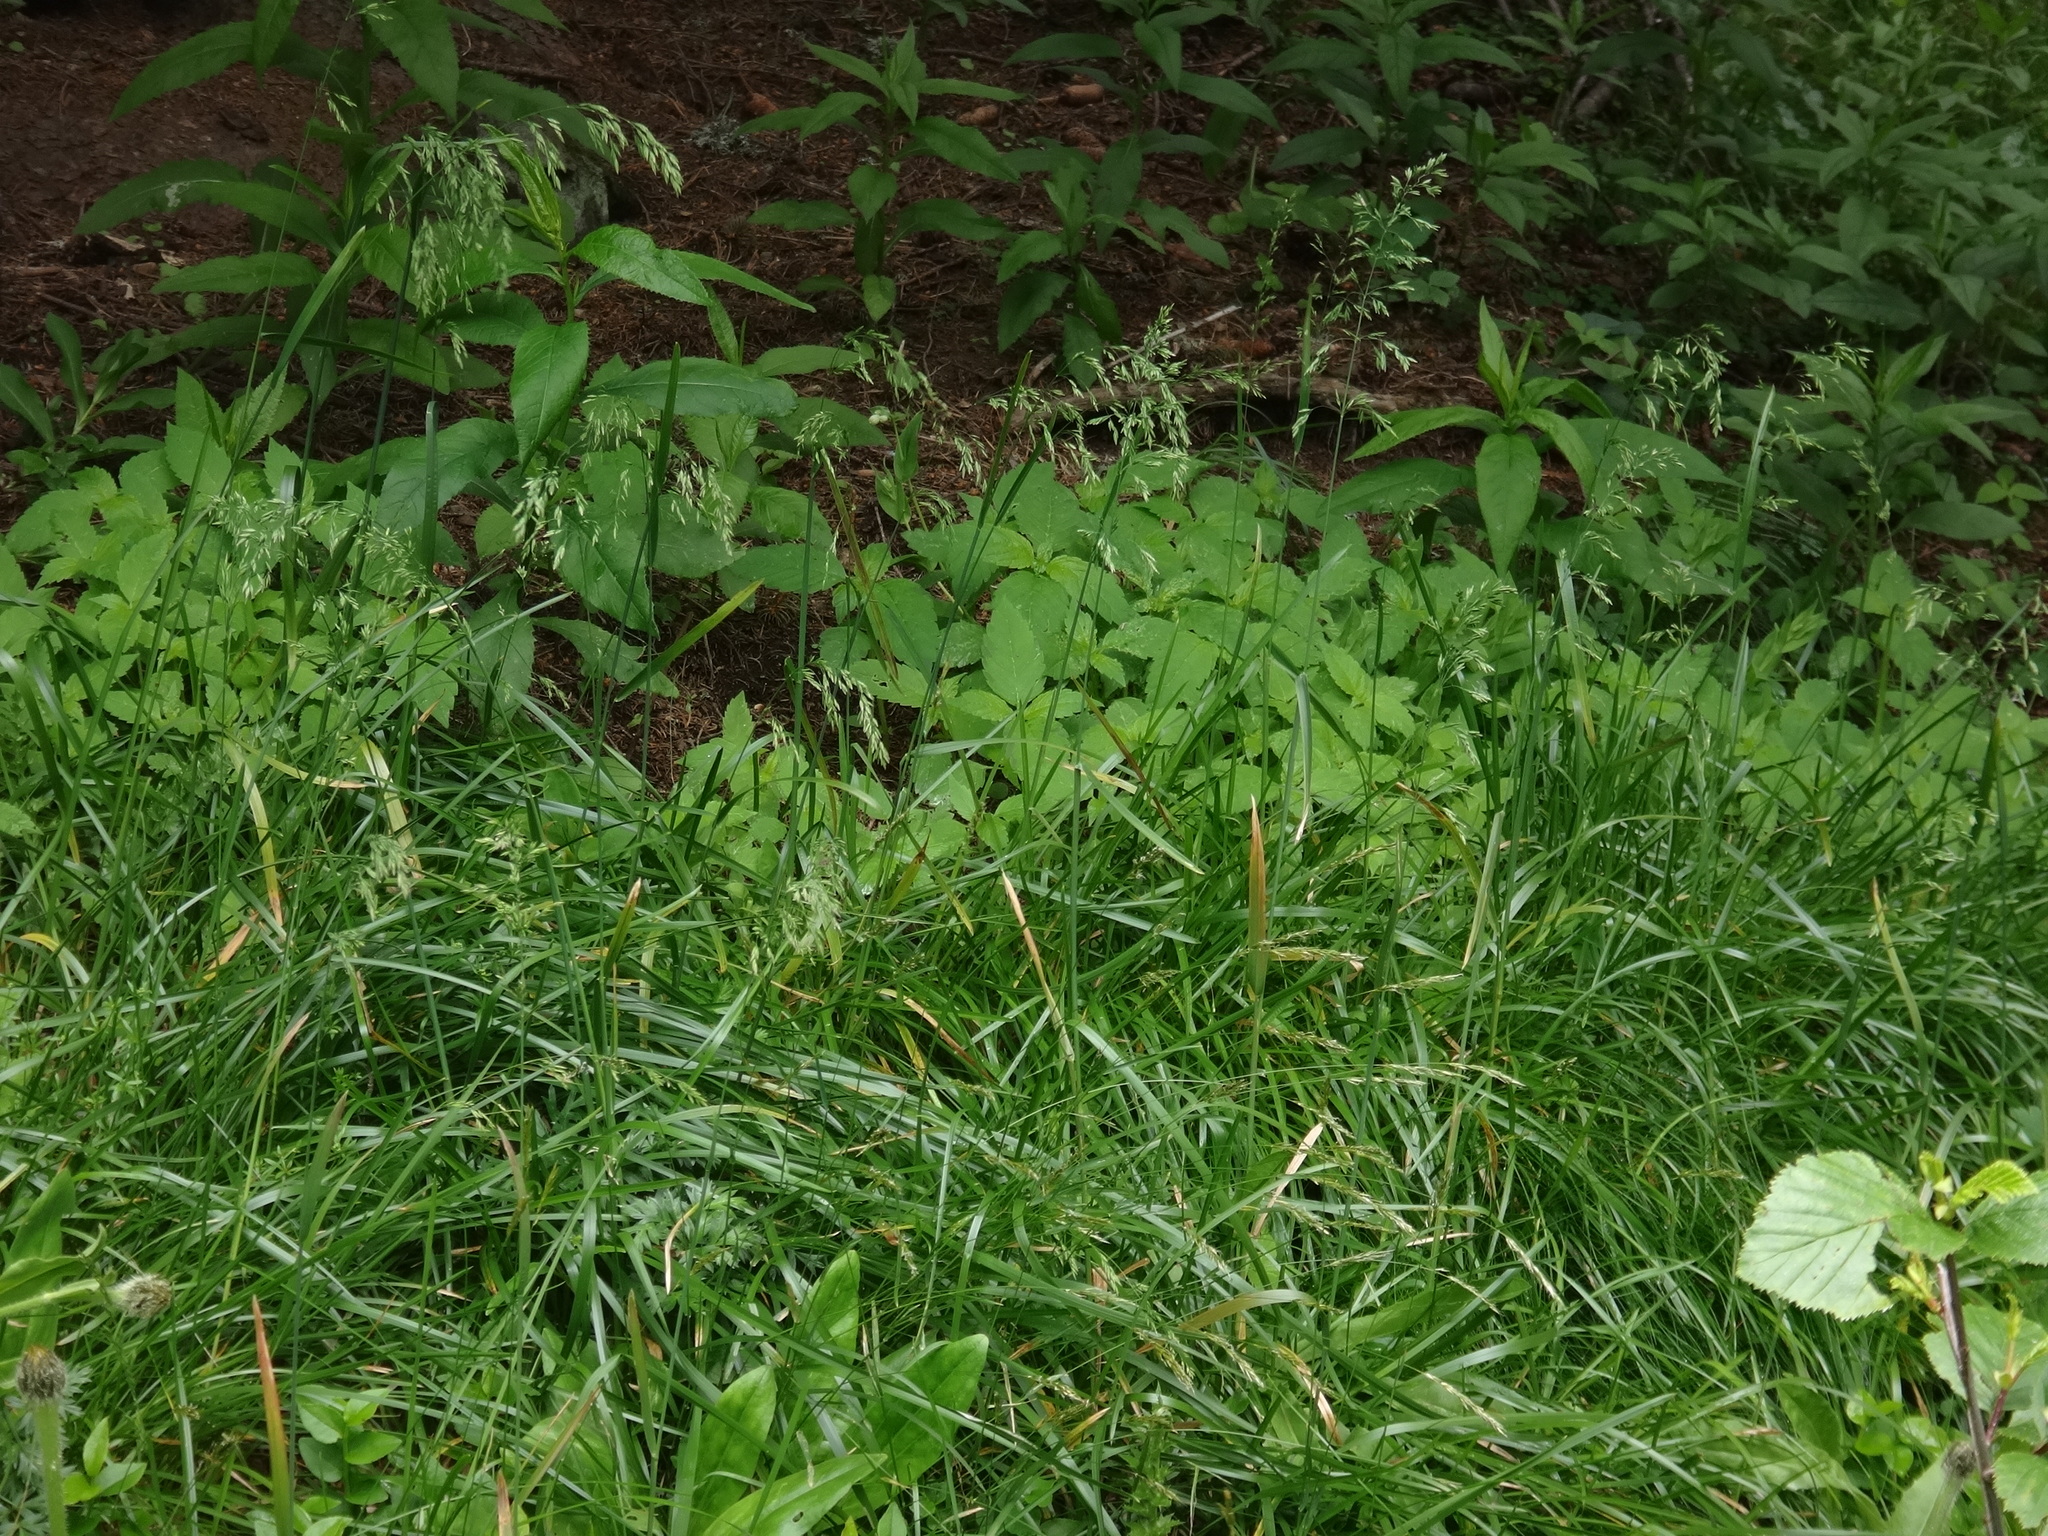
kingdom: Plantae
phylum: Tracheophyta
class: Liliopsida
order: Poales
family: Poaceae
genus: Poa
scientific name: Poa chaixii
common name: Broad-leaved meadow-grass
